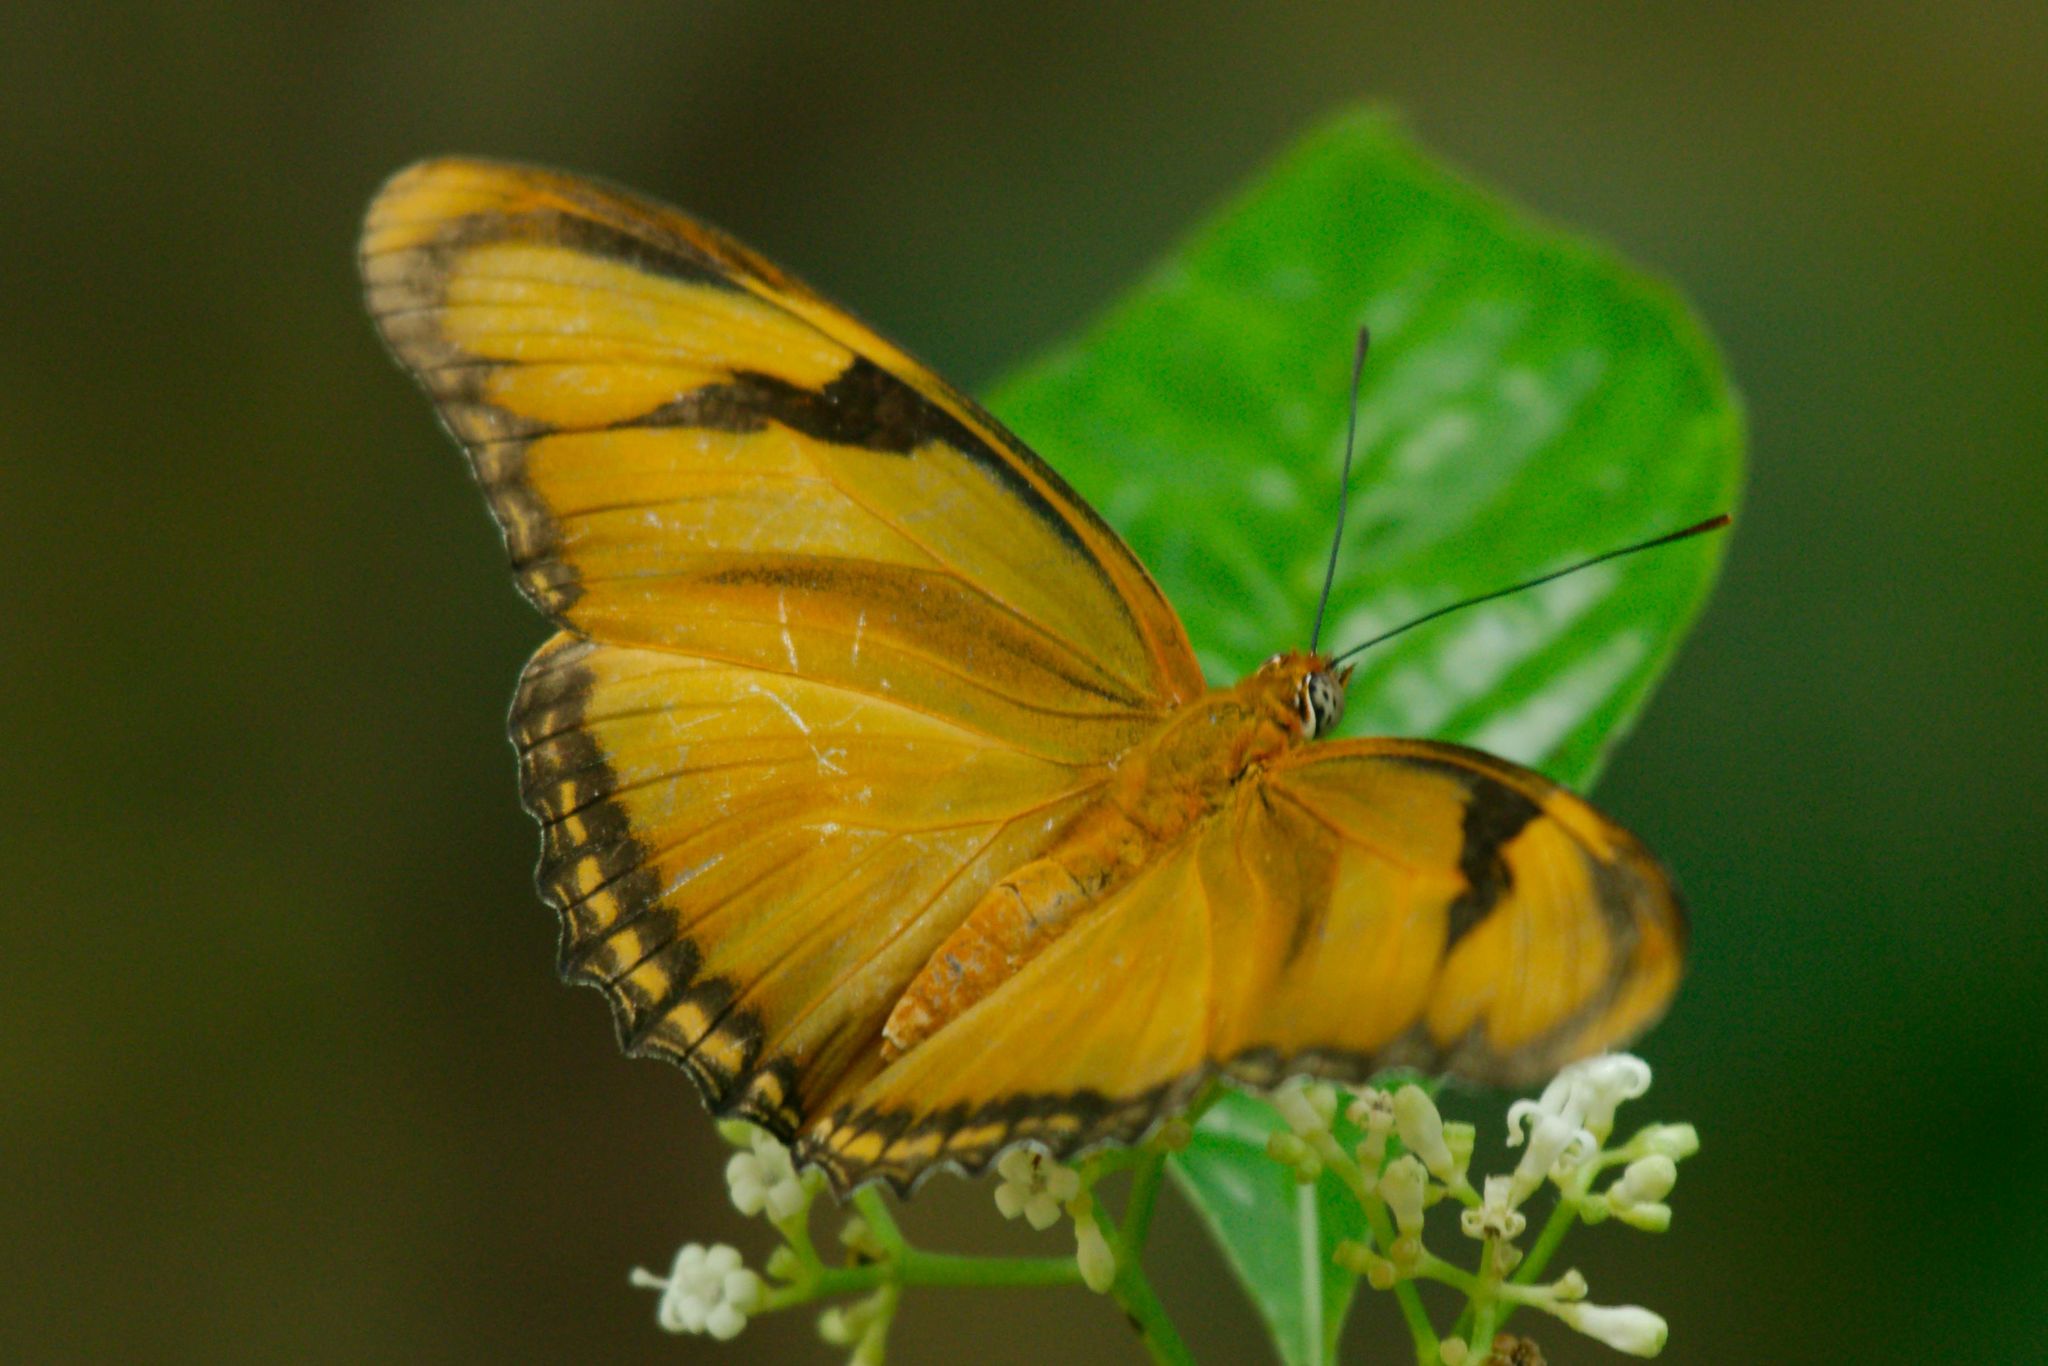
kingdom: Animalia
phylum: Arthropoda
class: Insecta
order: Lepidoptera
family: Nymphalidae
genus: Dryas
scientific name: Dryas iulia
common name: Flambeau
